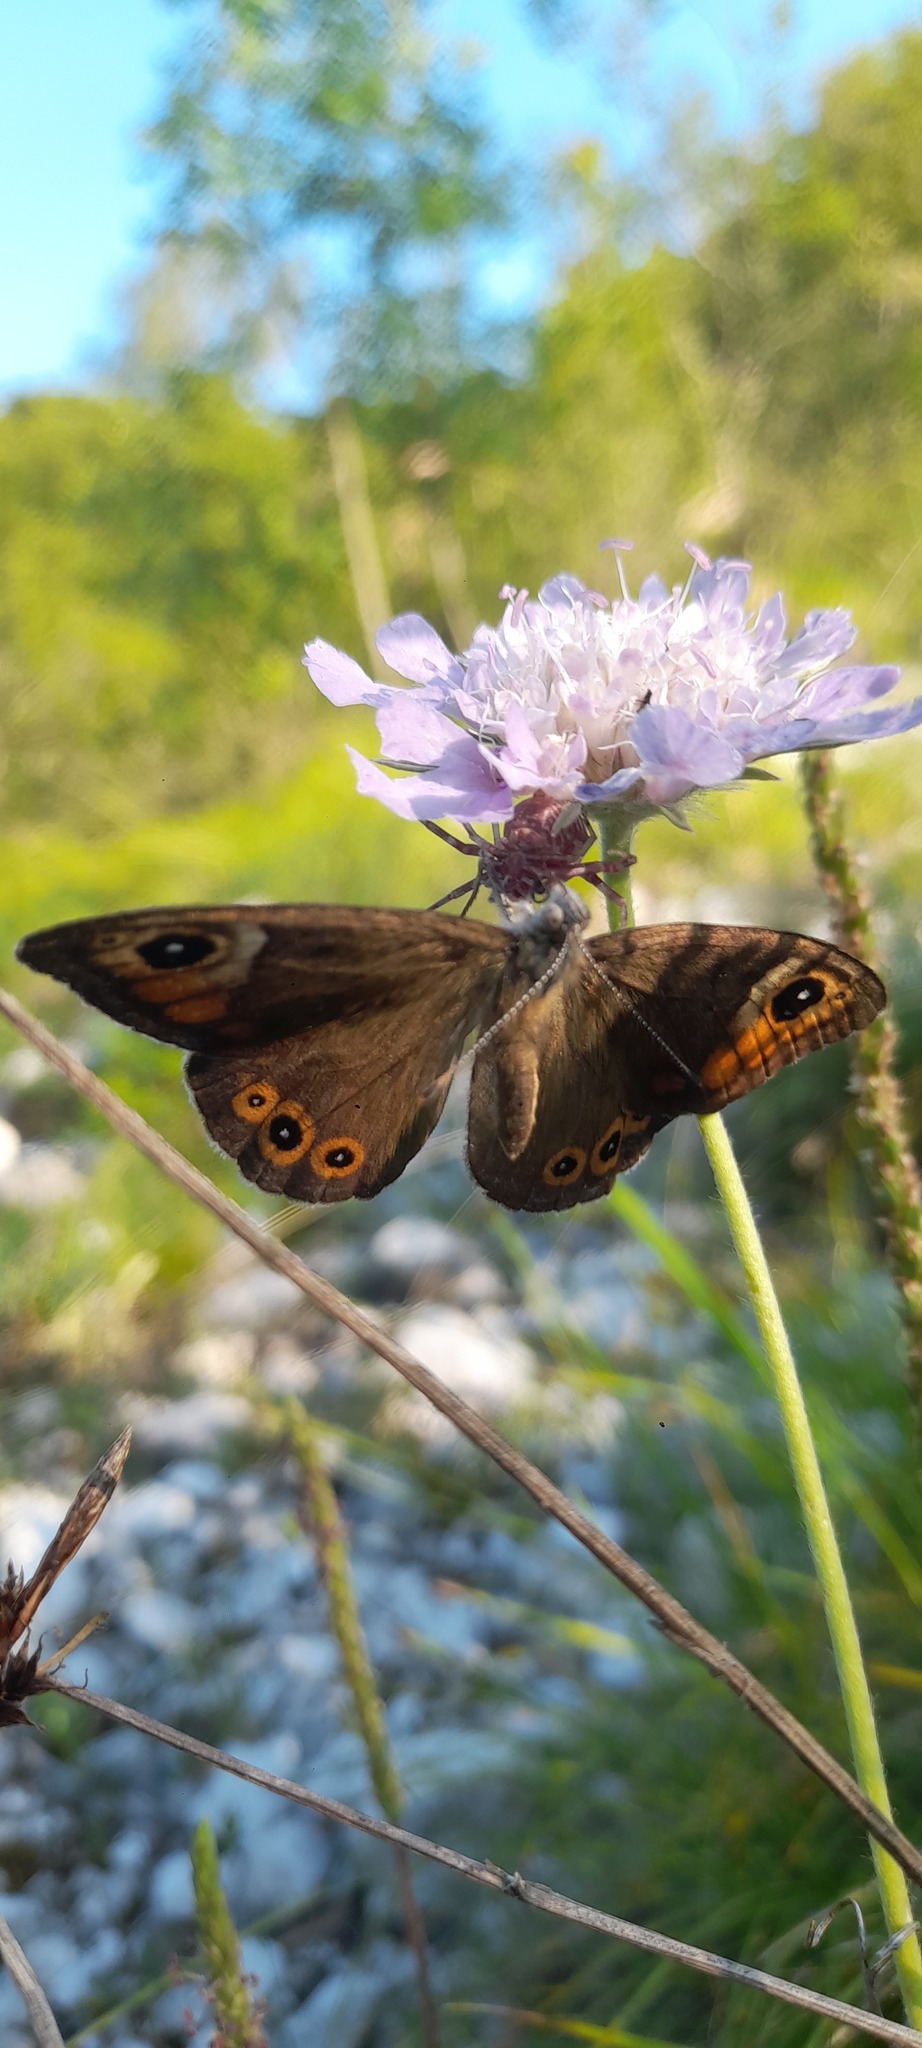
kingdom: Animalia
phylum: Arthropoda
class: Insecta
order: Lepidoptera
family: Nymphalidae
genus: Pararge
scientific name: Pararge Lasiommata maera
